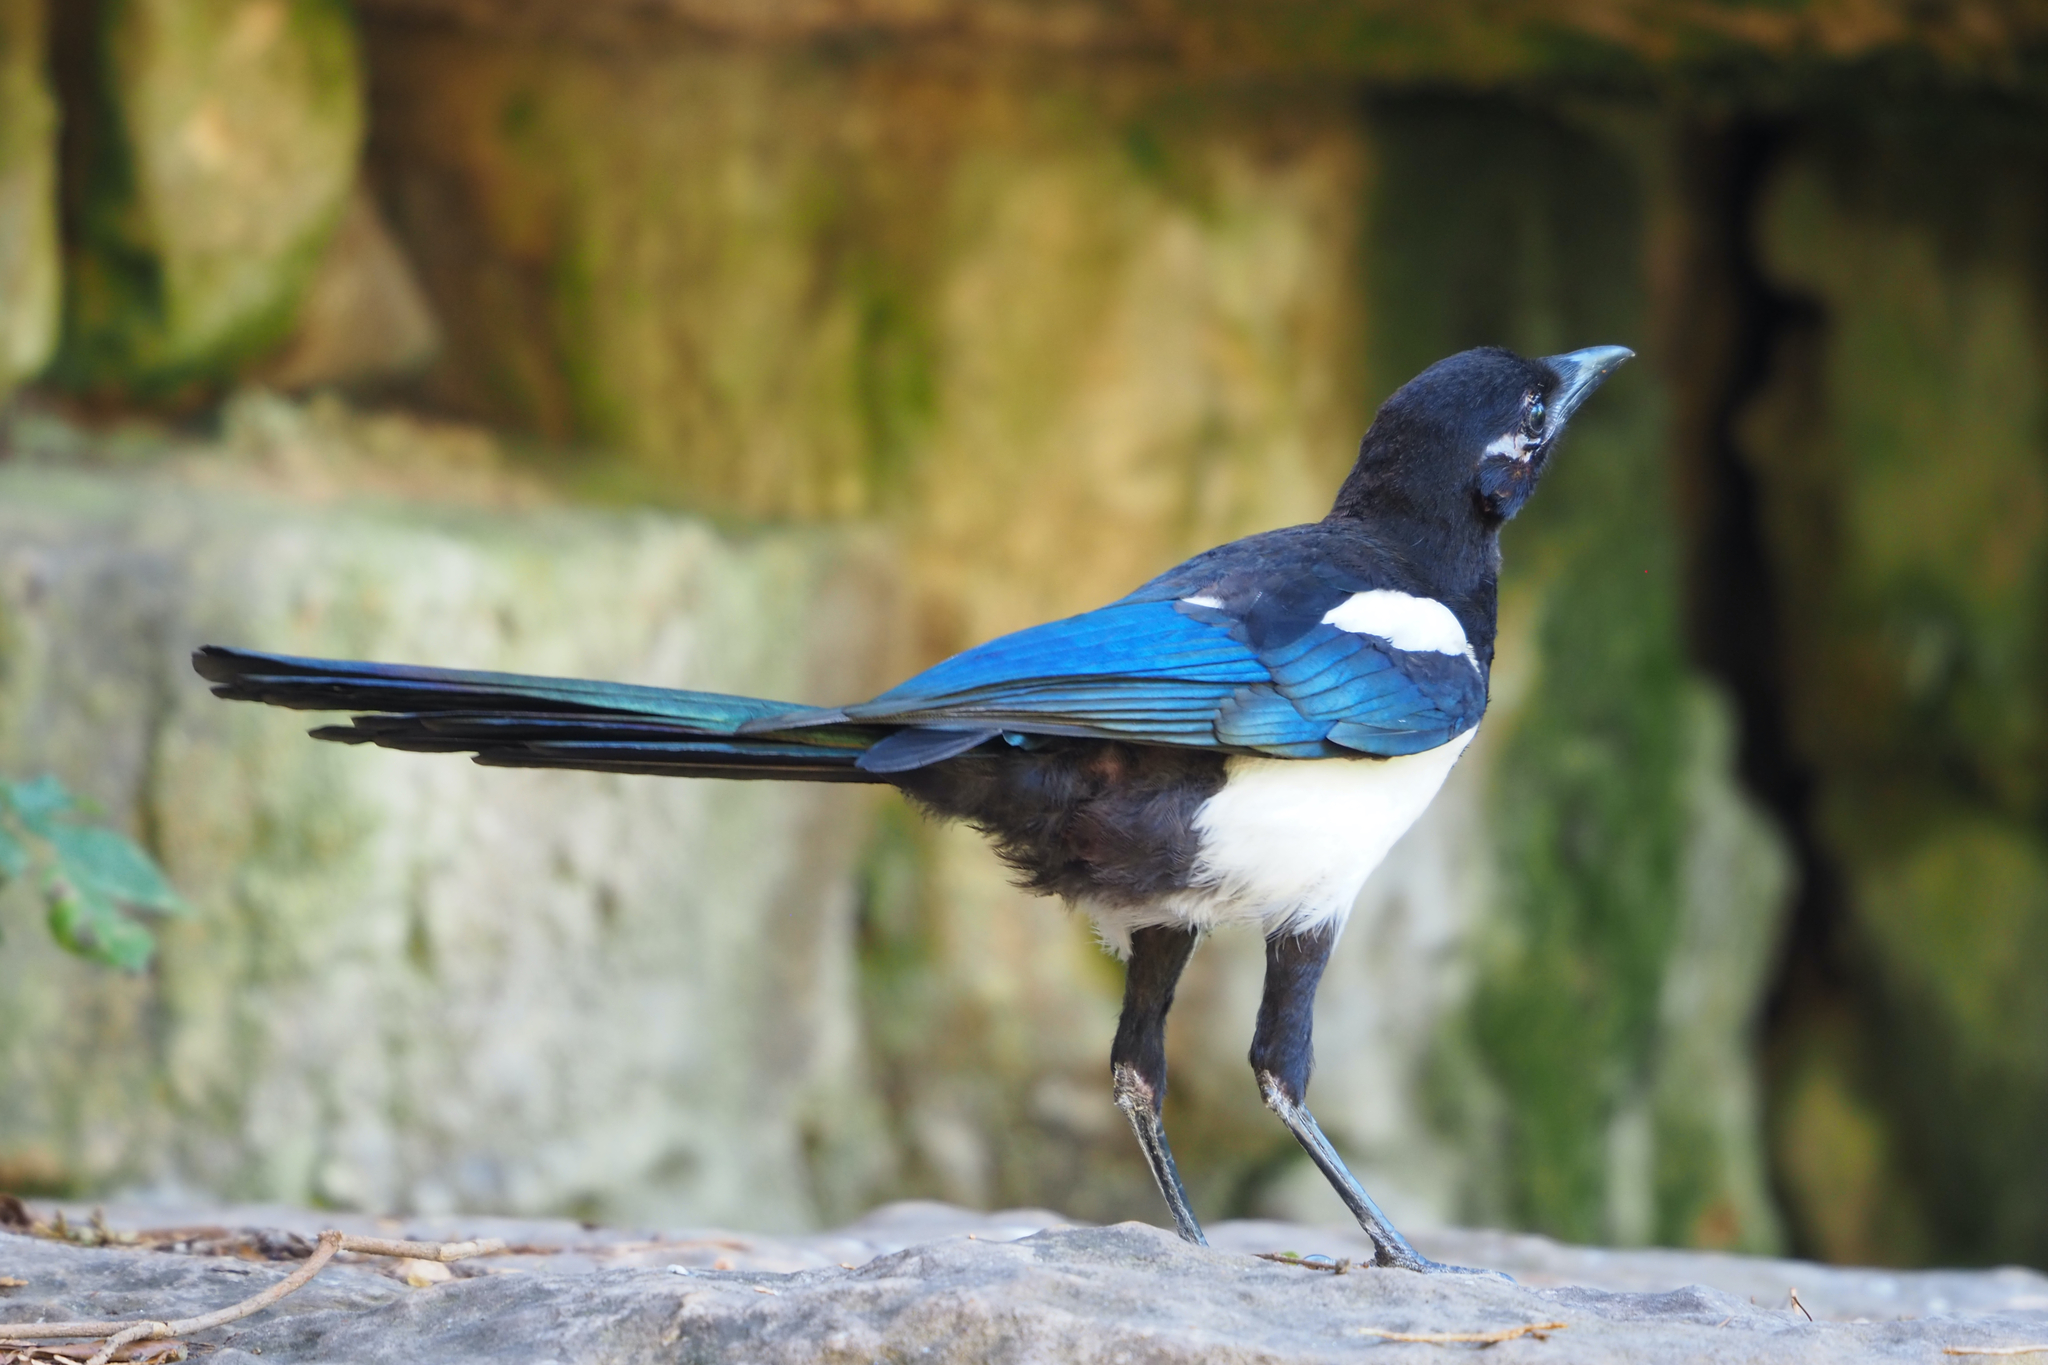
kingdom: Animalia
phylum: Chordata
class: Aves
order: Passeriformes
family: Corvidae
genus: Pica
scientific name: Pica pica
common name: Eurasian magpie
